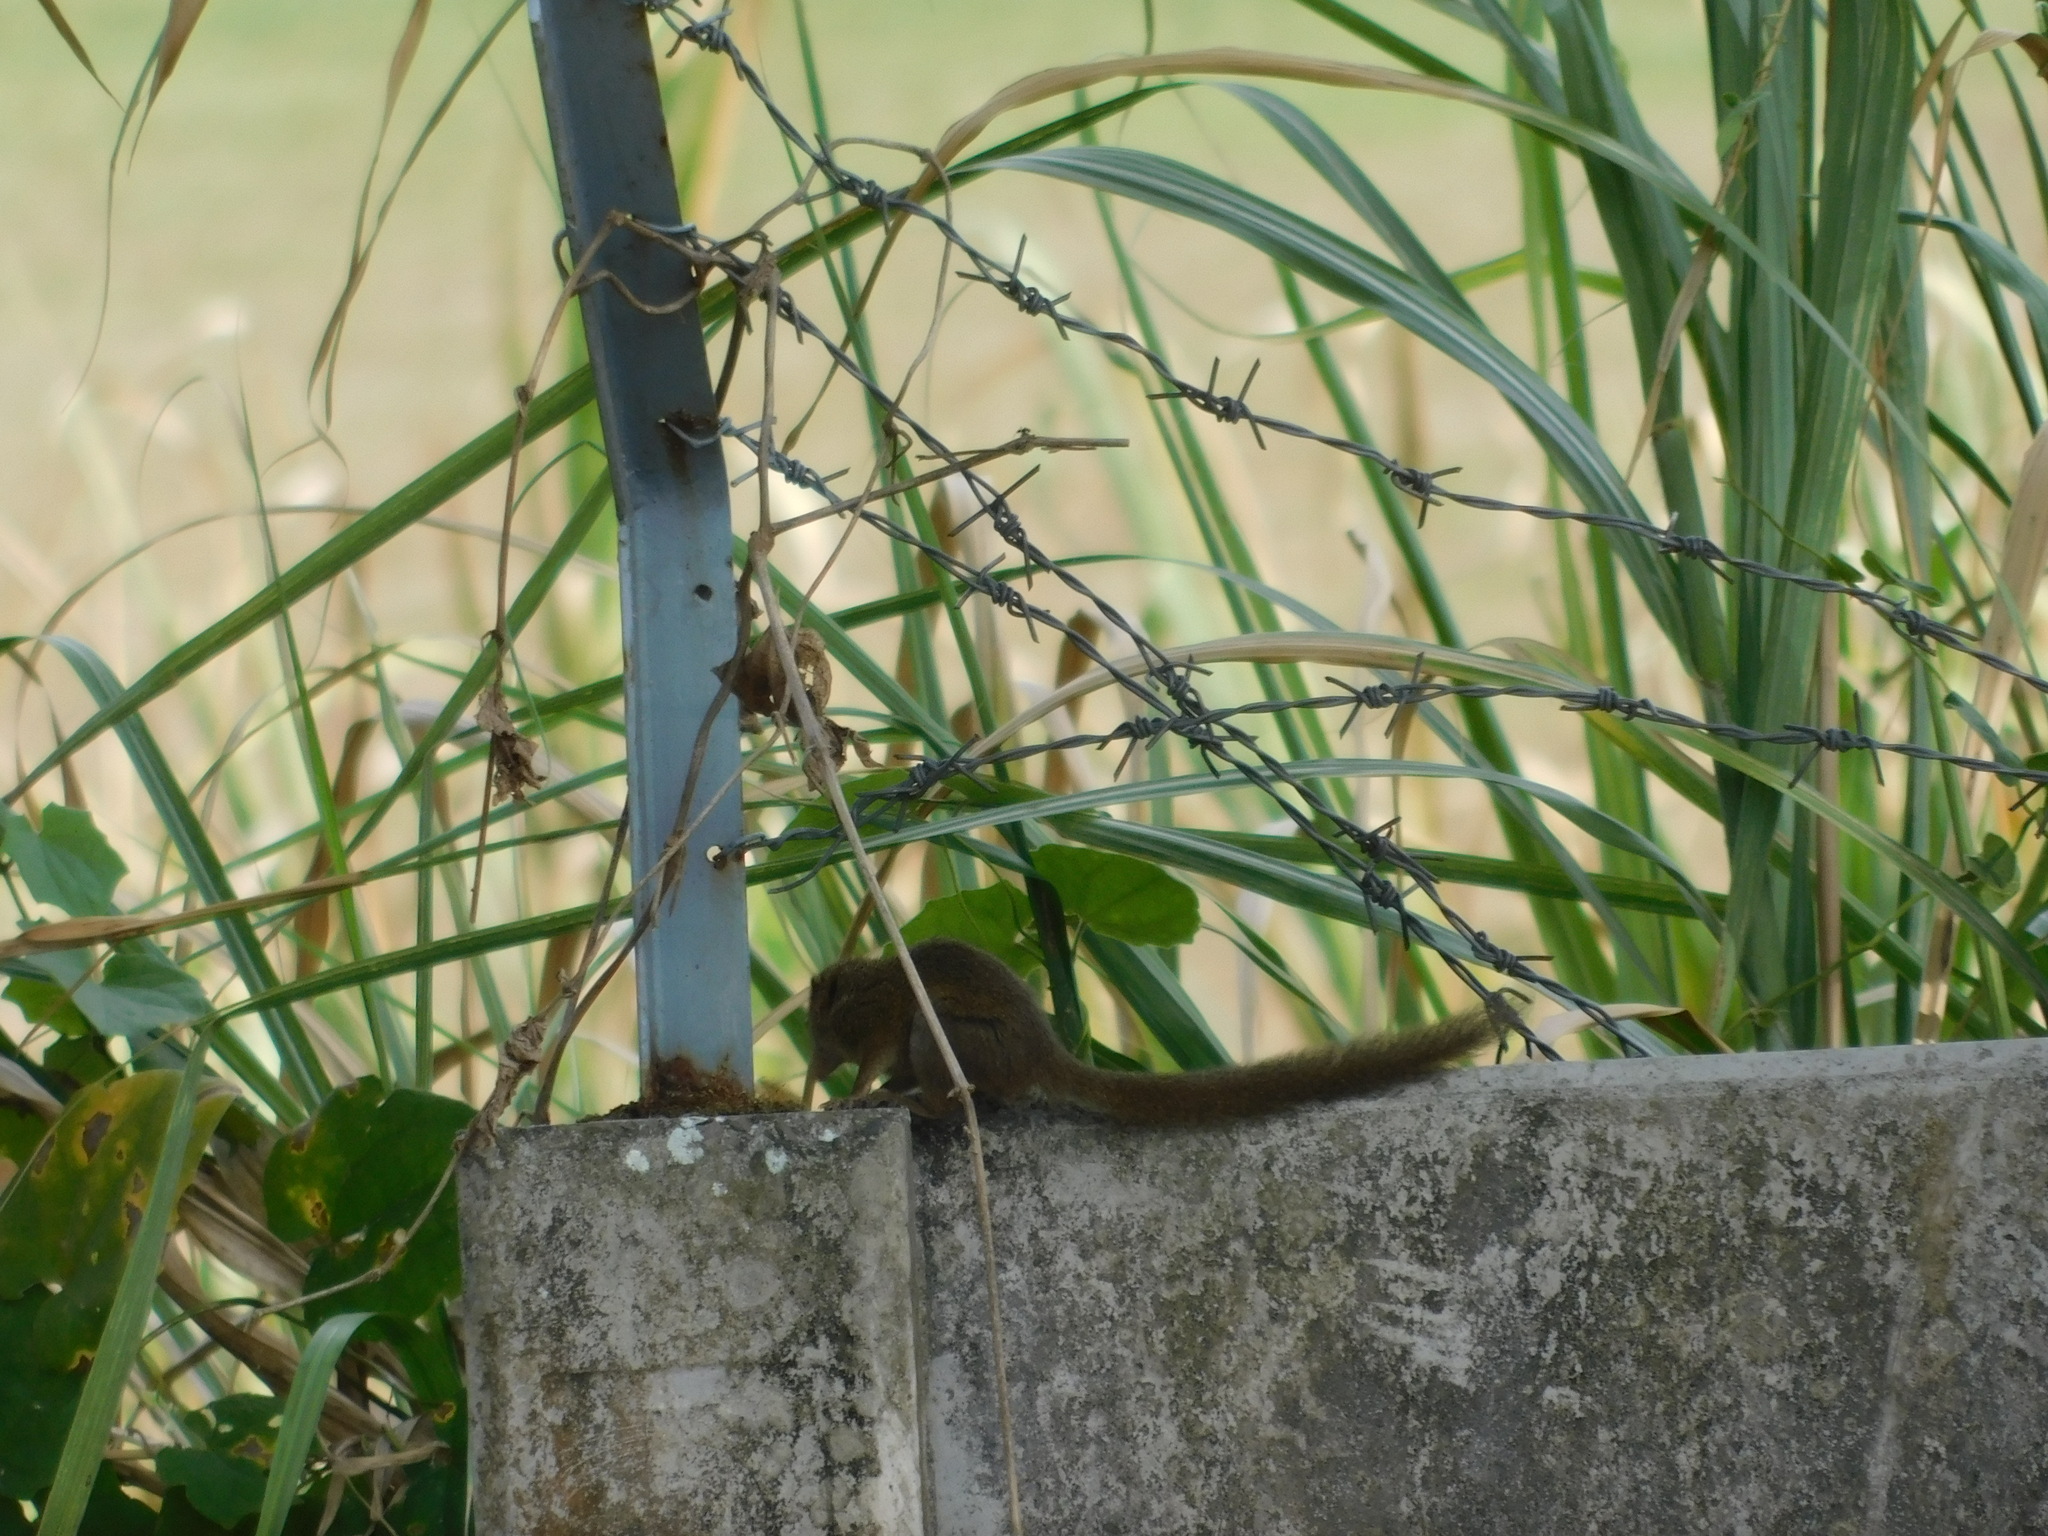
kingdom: Animalia
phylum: Chordata
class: Mammalia
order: Scandentia
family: Tupaiidae
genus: Tupaia
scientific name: Tupaia javanica
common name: Horsfield's treeshrew
